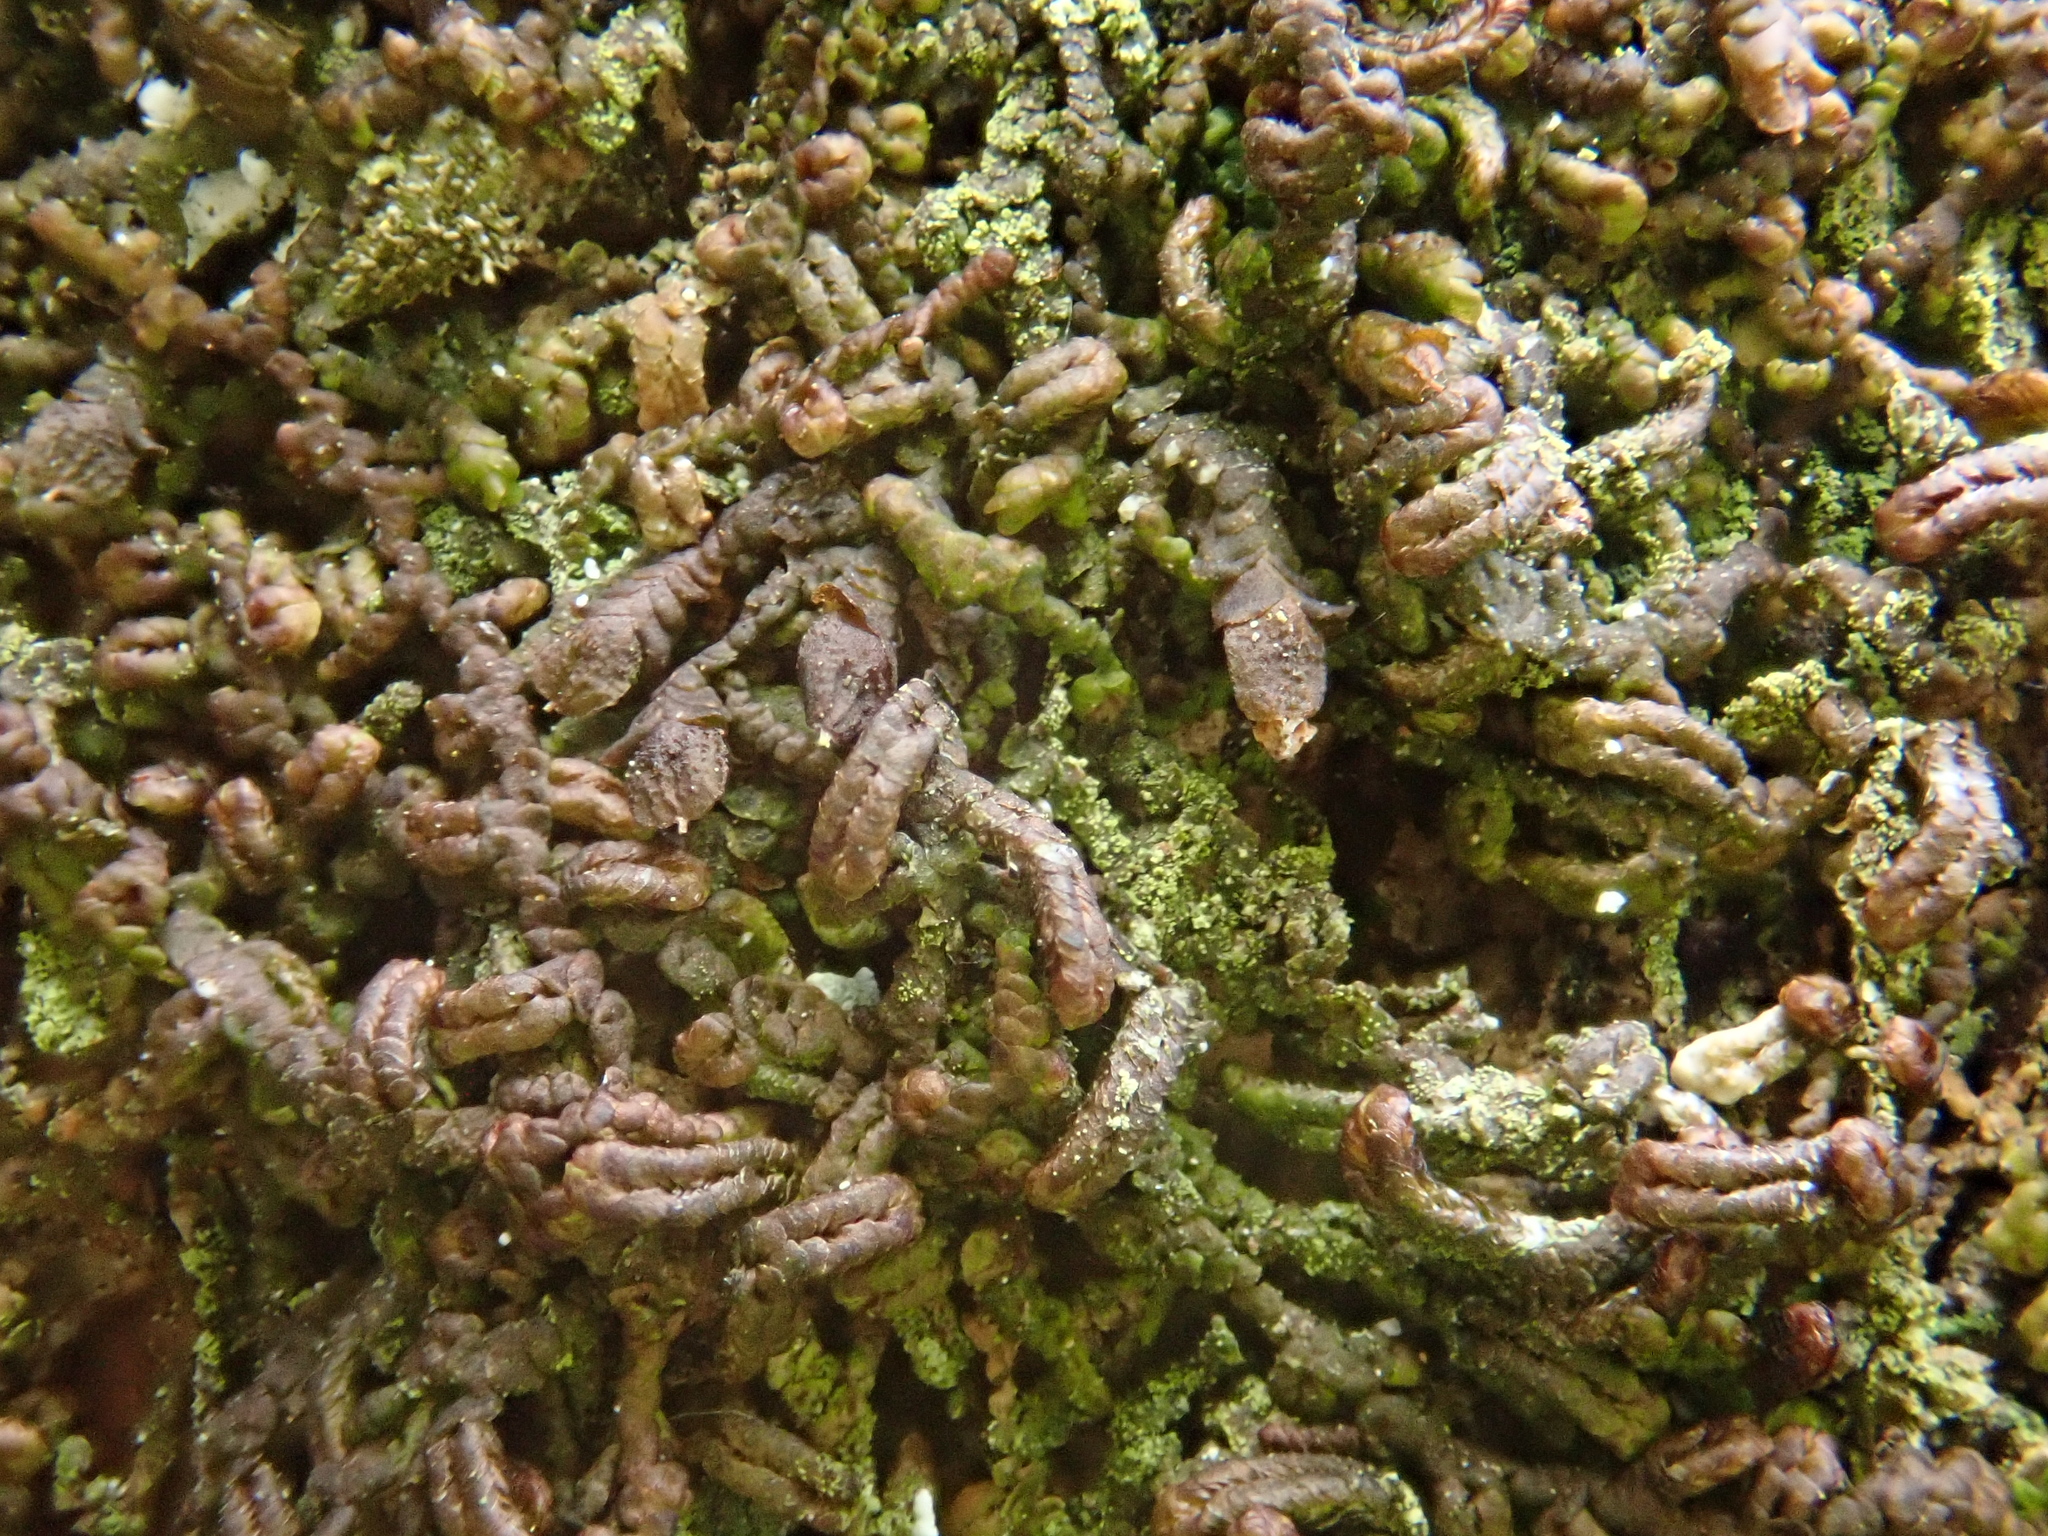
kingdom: Plantae
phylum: Marchantiophyta
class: Jungermanniopsida
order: Porellales
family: Frullaniaceae
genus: Frullania
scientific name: Frullania dilatata
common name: Dilated scalewort
